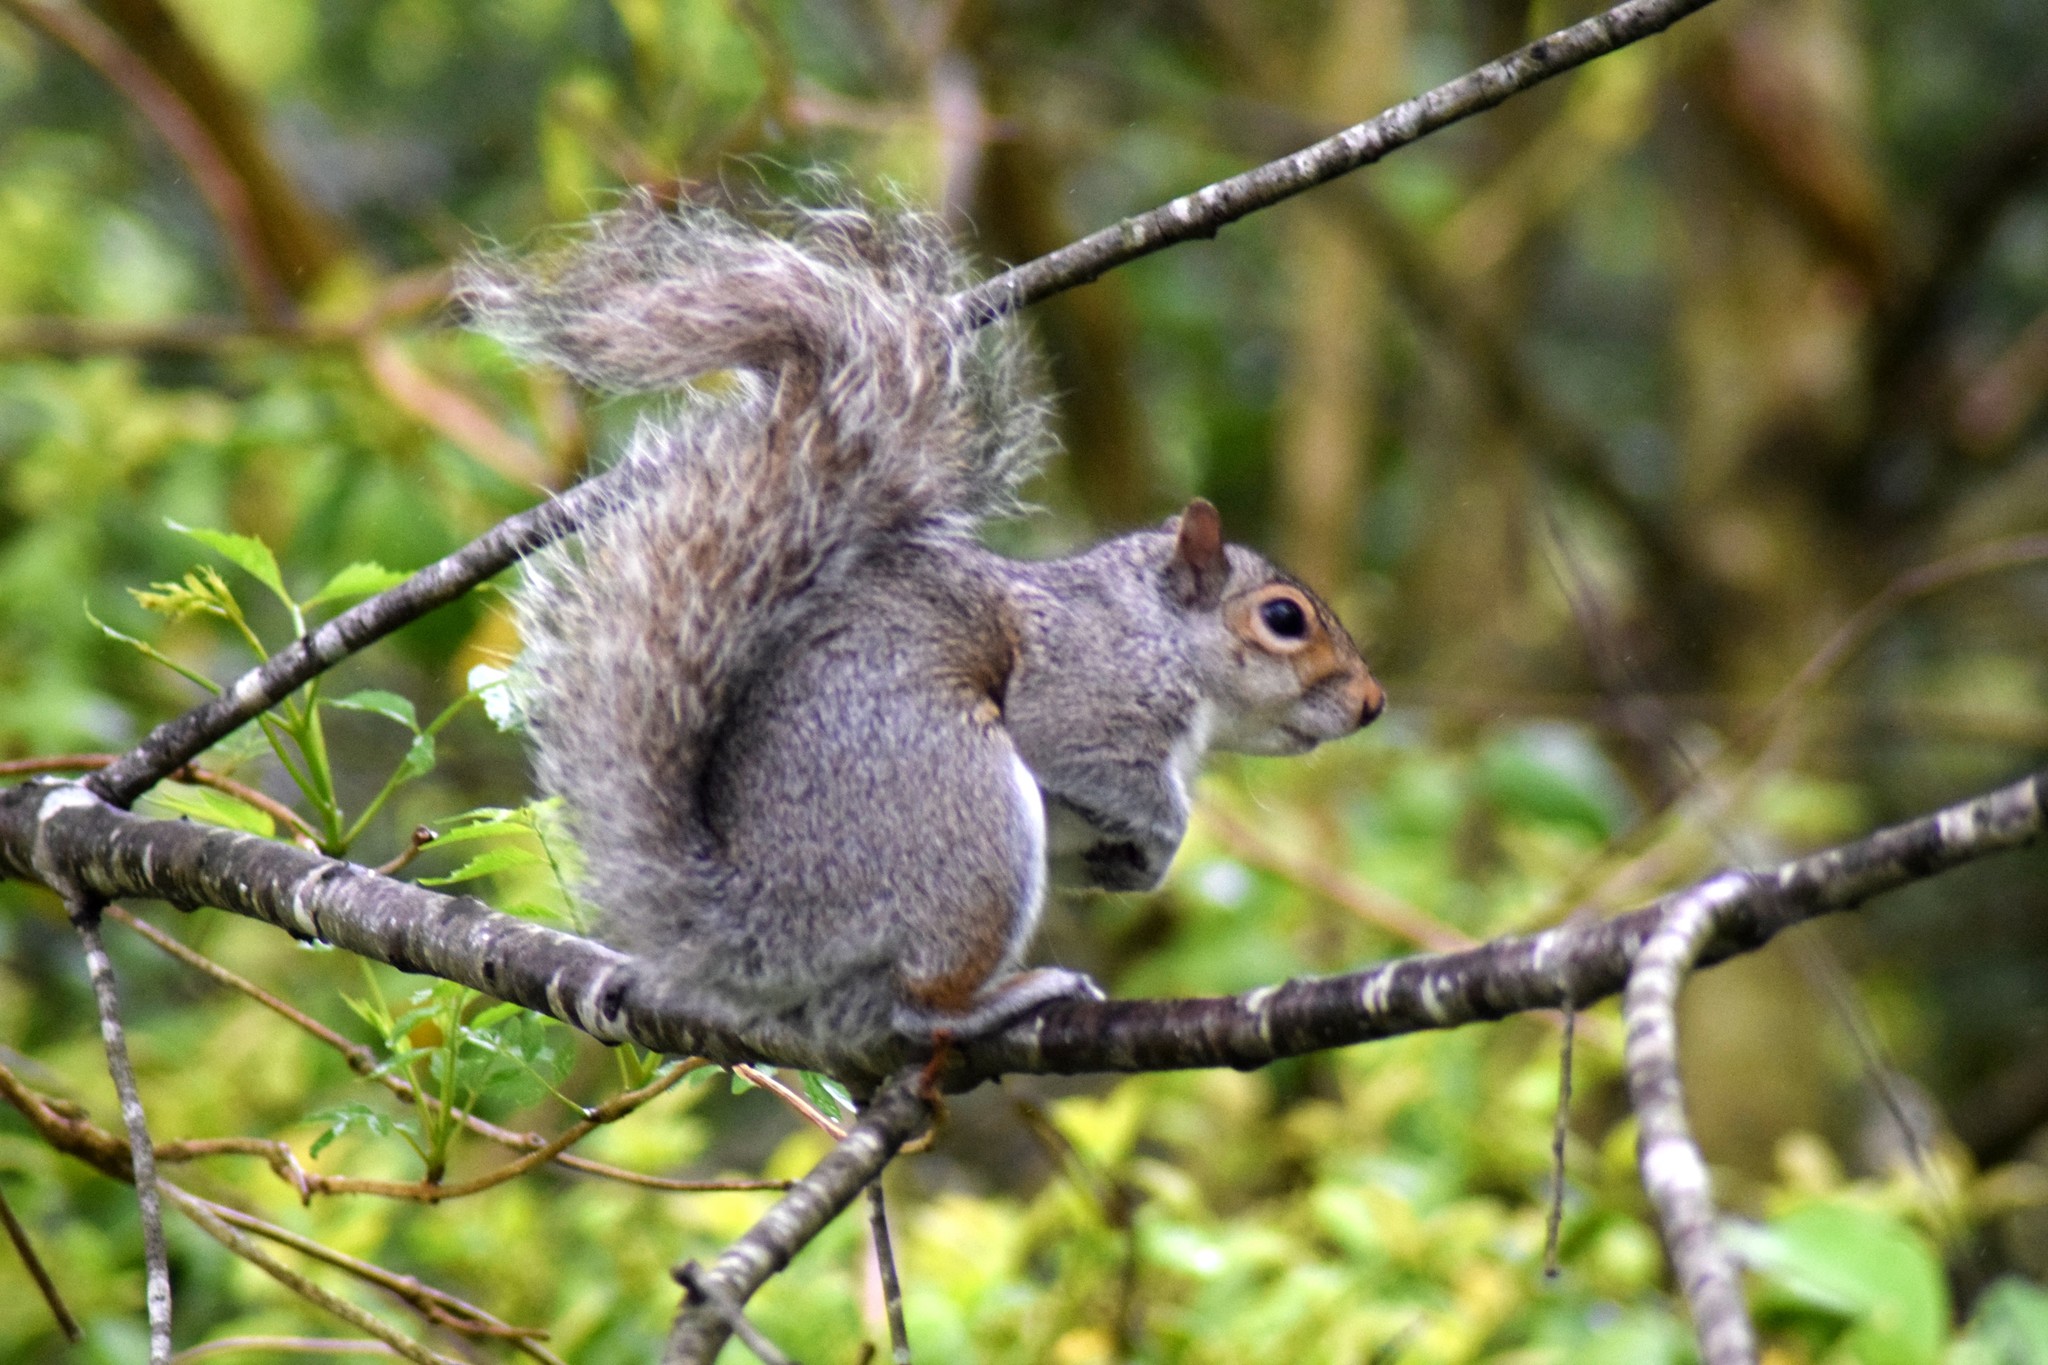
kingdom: Animalia
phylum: Chordata
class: Mammalia
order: Rodentia
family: Sciuridae
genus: Sciurus
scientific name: Sciurus carolinensis
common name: Eastern gray squirrel
